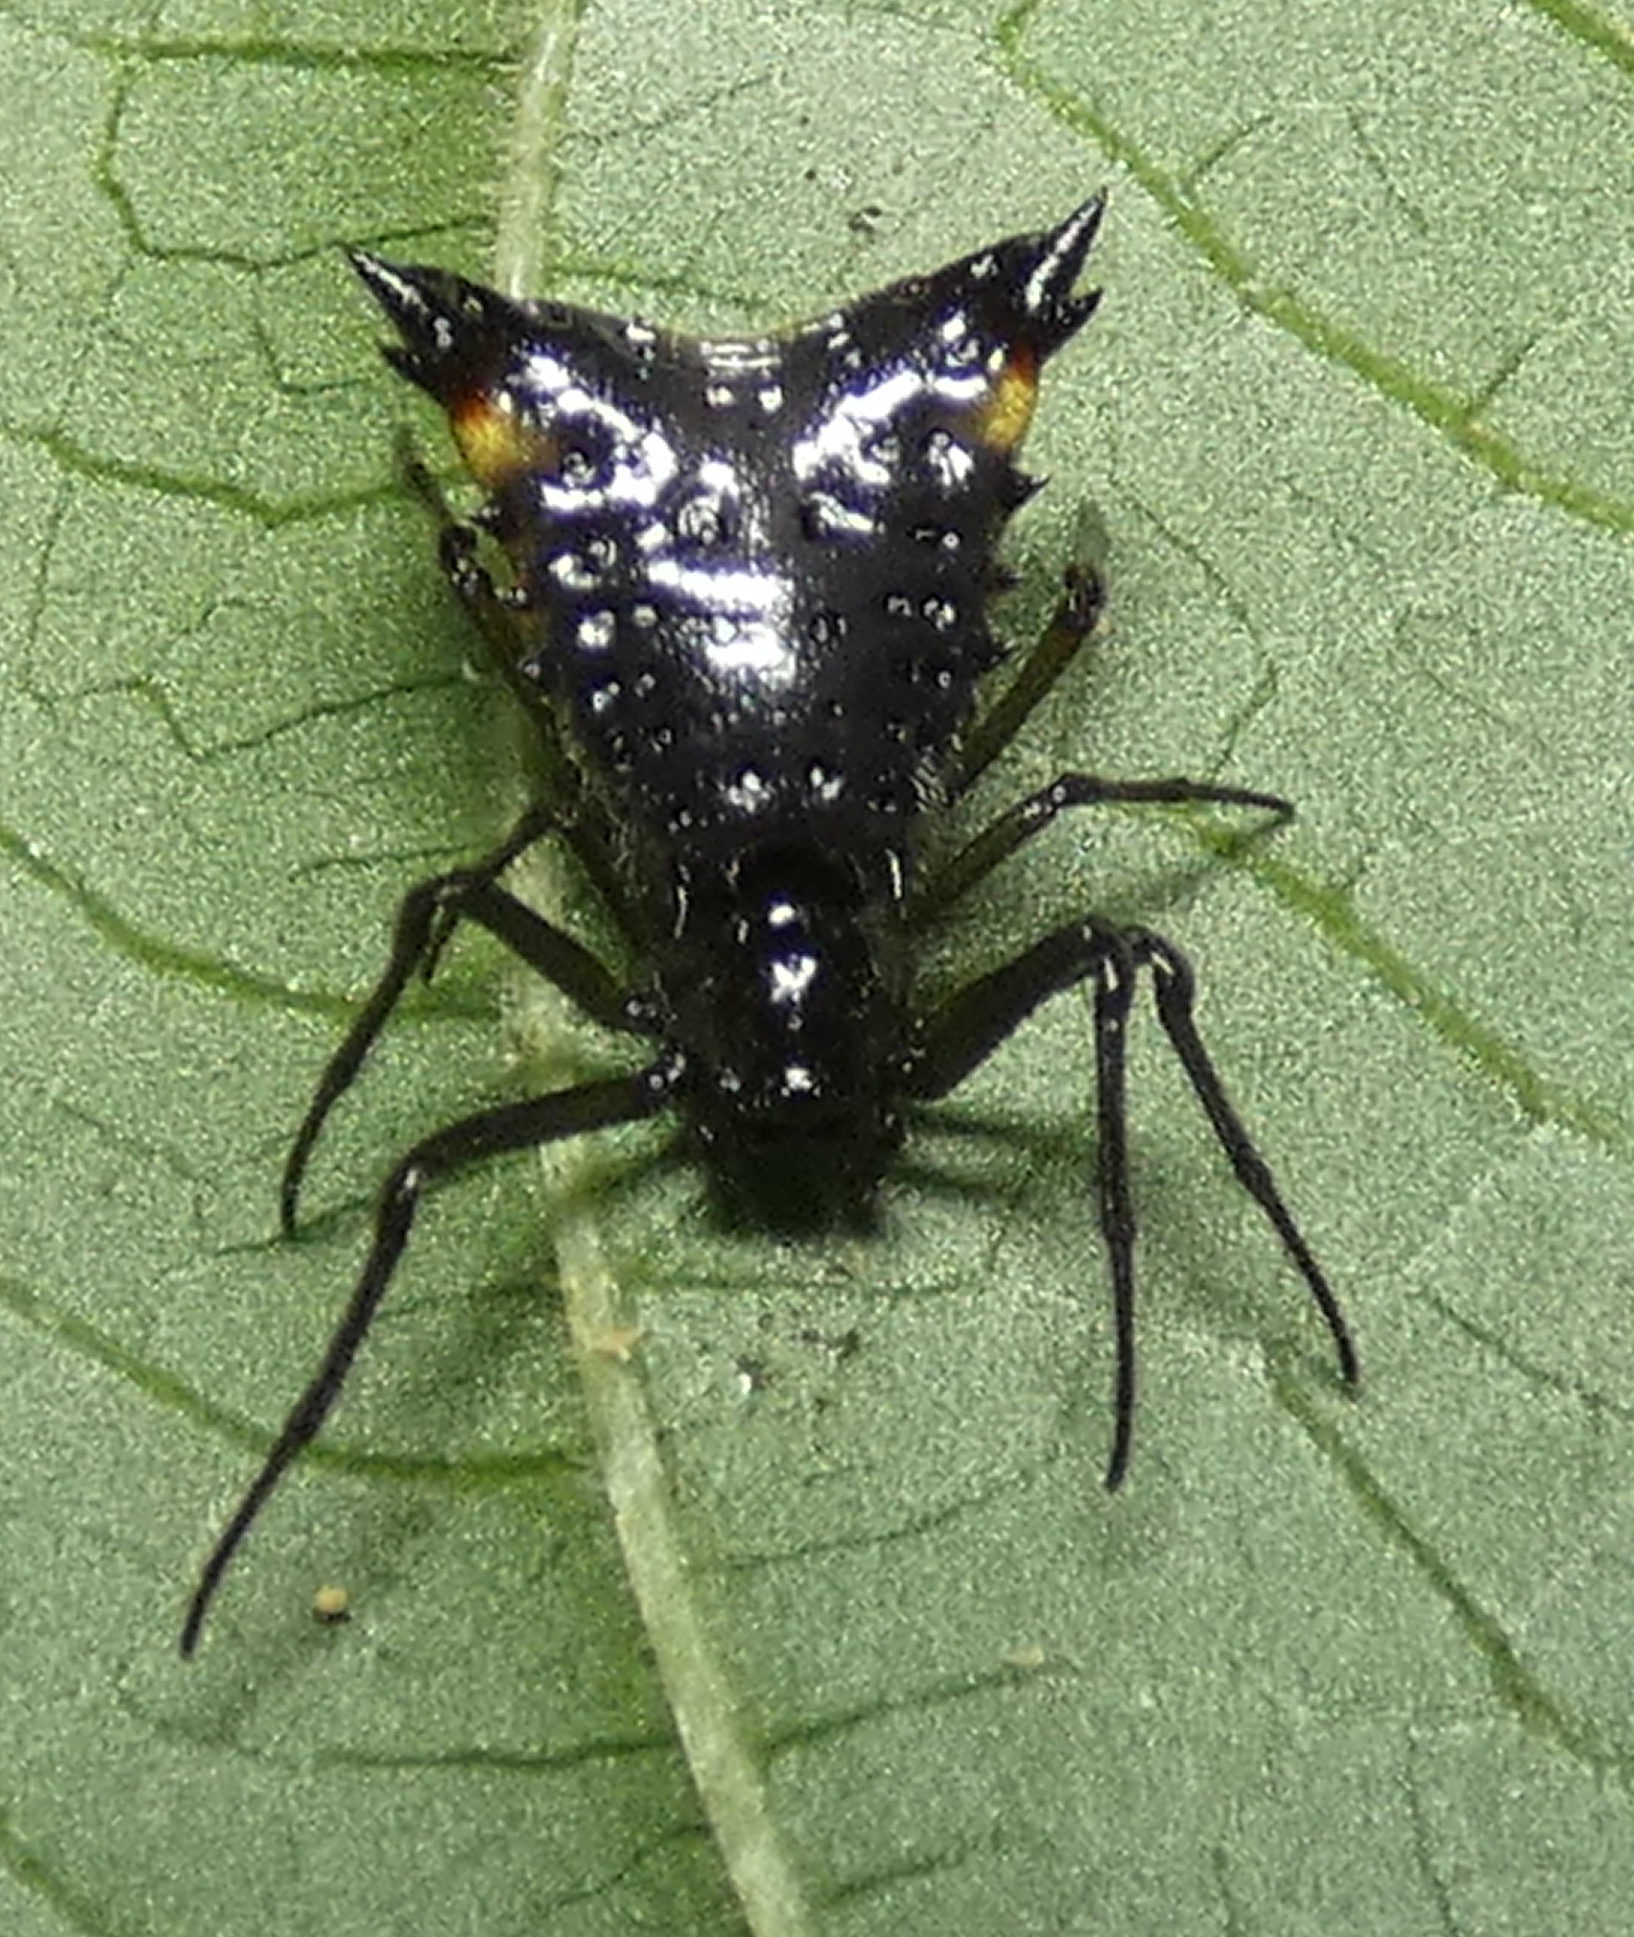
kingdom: Animalia
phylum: Arthropoda
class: Arachnida
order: Araneae
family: Araneidae
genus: Micrathena
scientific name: Micrathena triangularis
